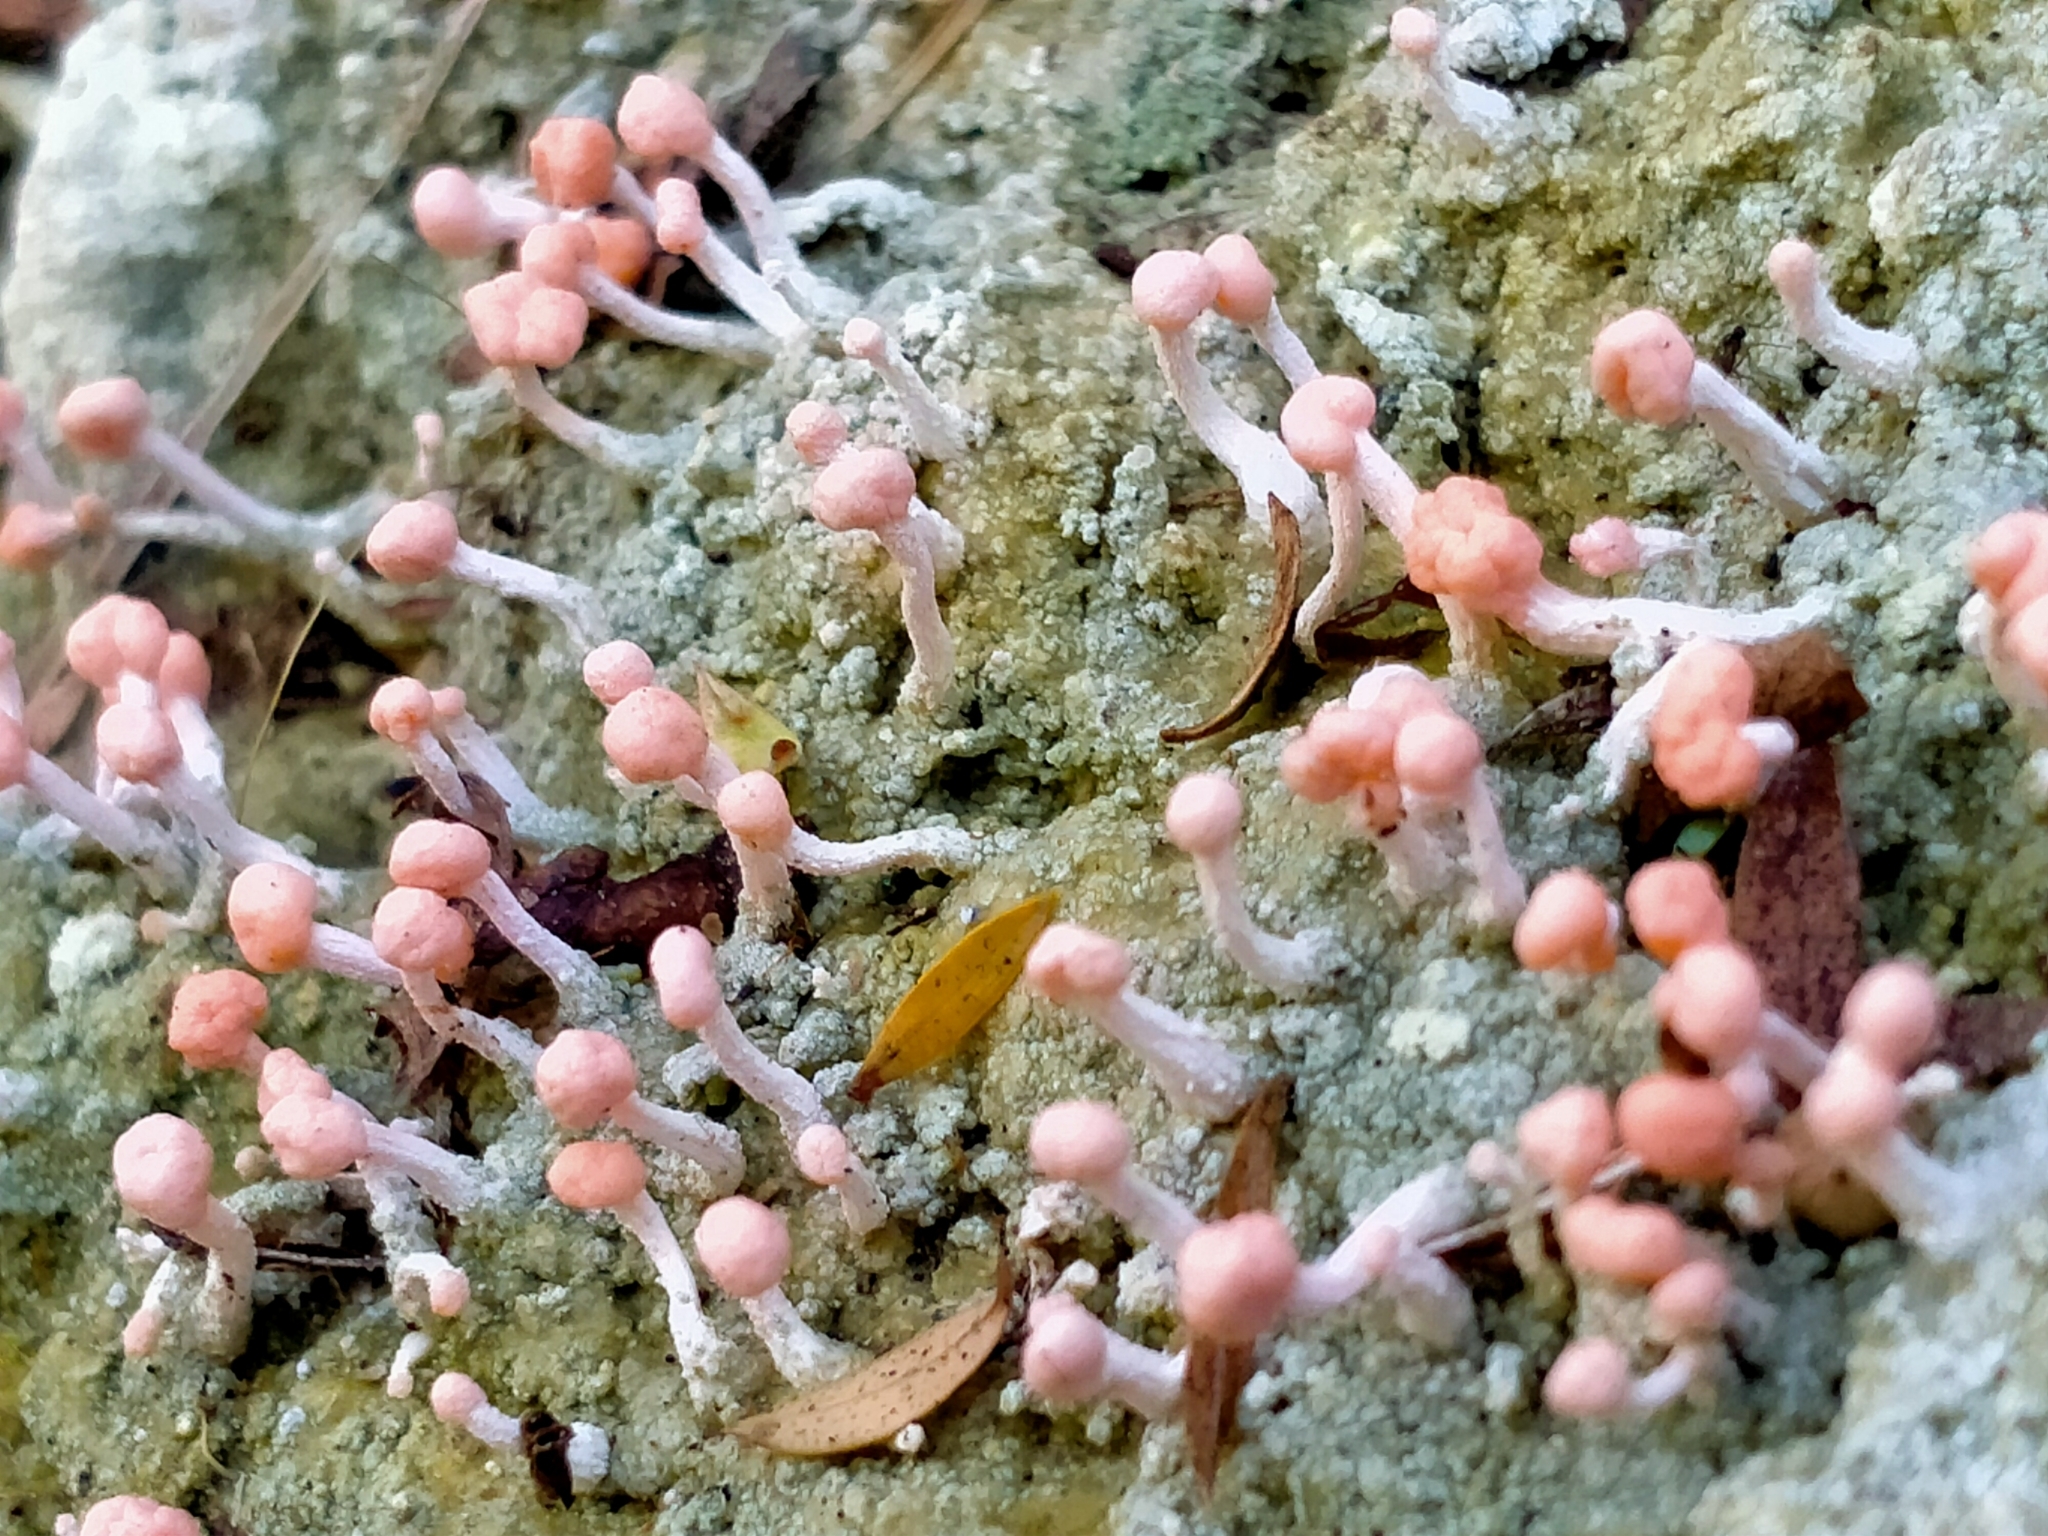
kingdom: Fungi
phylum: Ascomycota
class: Lecanoromycetes
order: Pertusariales
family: Icmadophilaceae
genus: Dibaeis
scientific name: Dibaeis arcuata
